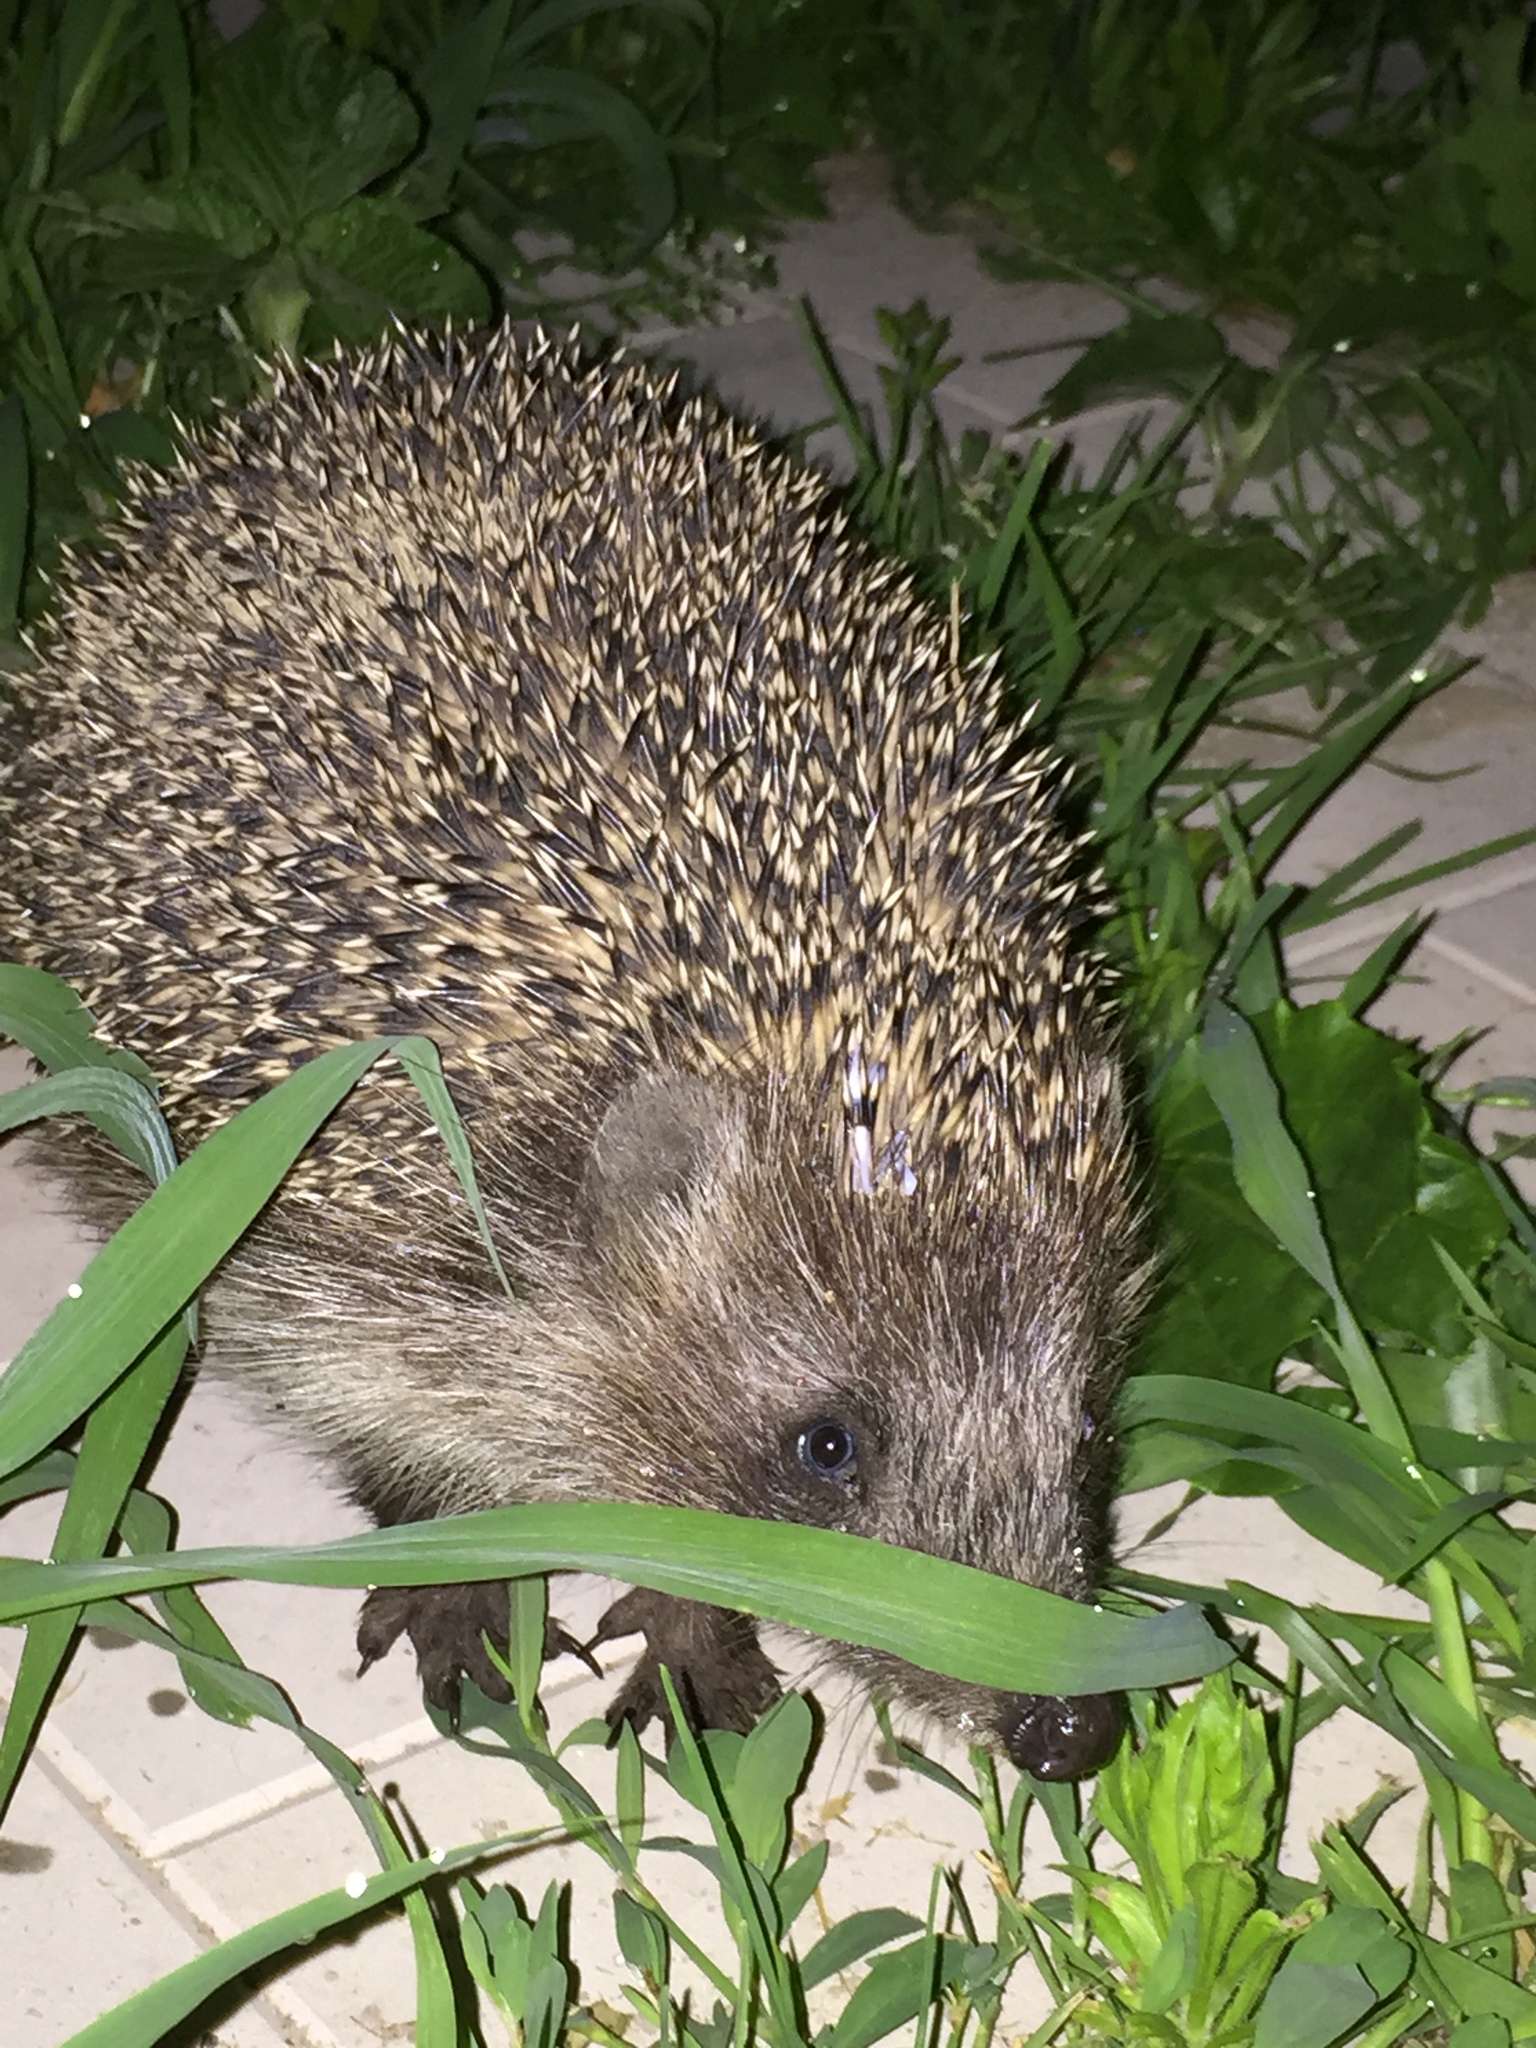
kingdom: Animalia
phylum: Chordata
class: Mammalia
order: Erinaceomorpha
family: Erinaceidae
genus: Erinaceus
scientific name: Erinaceus roumanicus
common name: Northern white-breasted hedgehog
